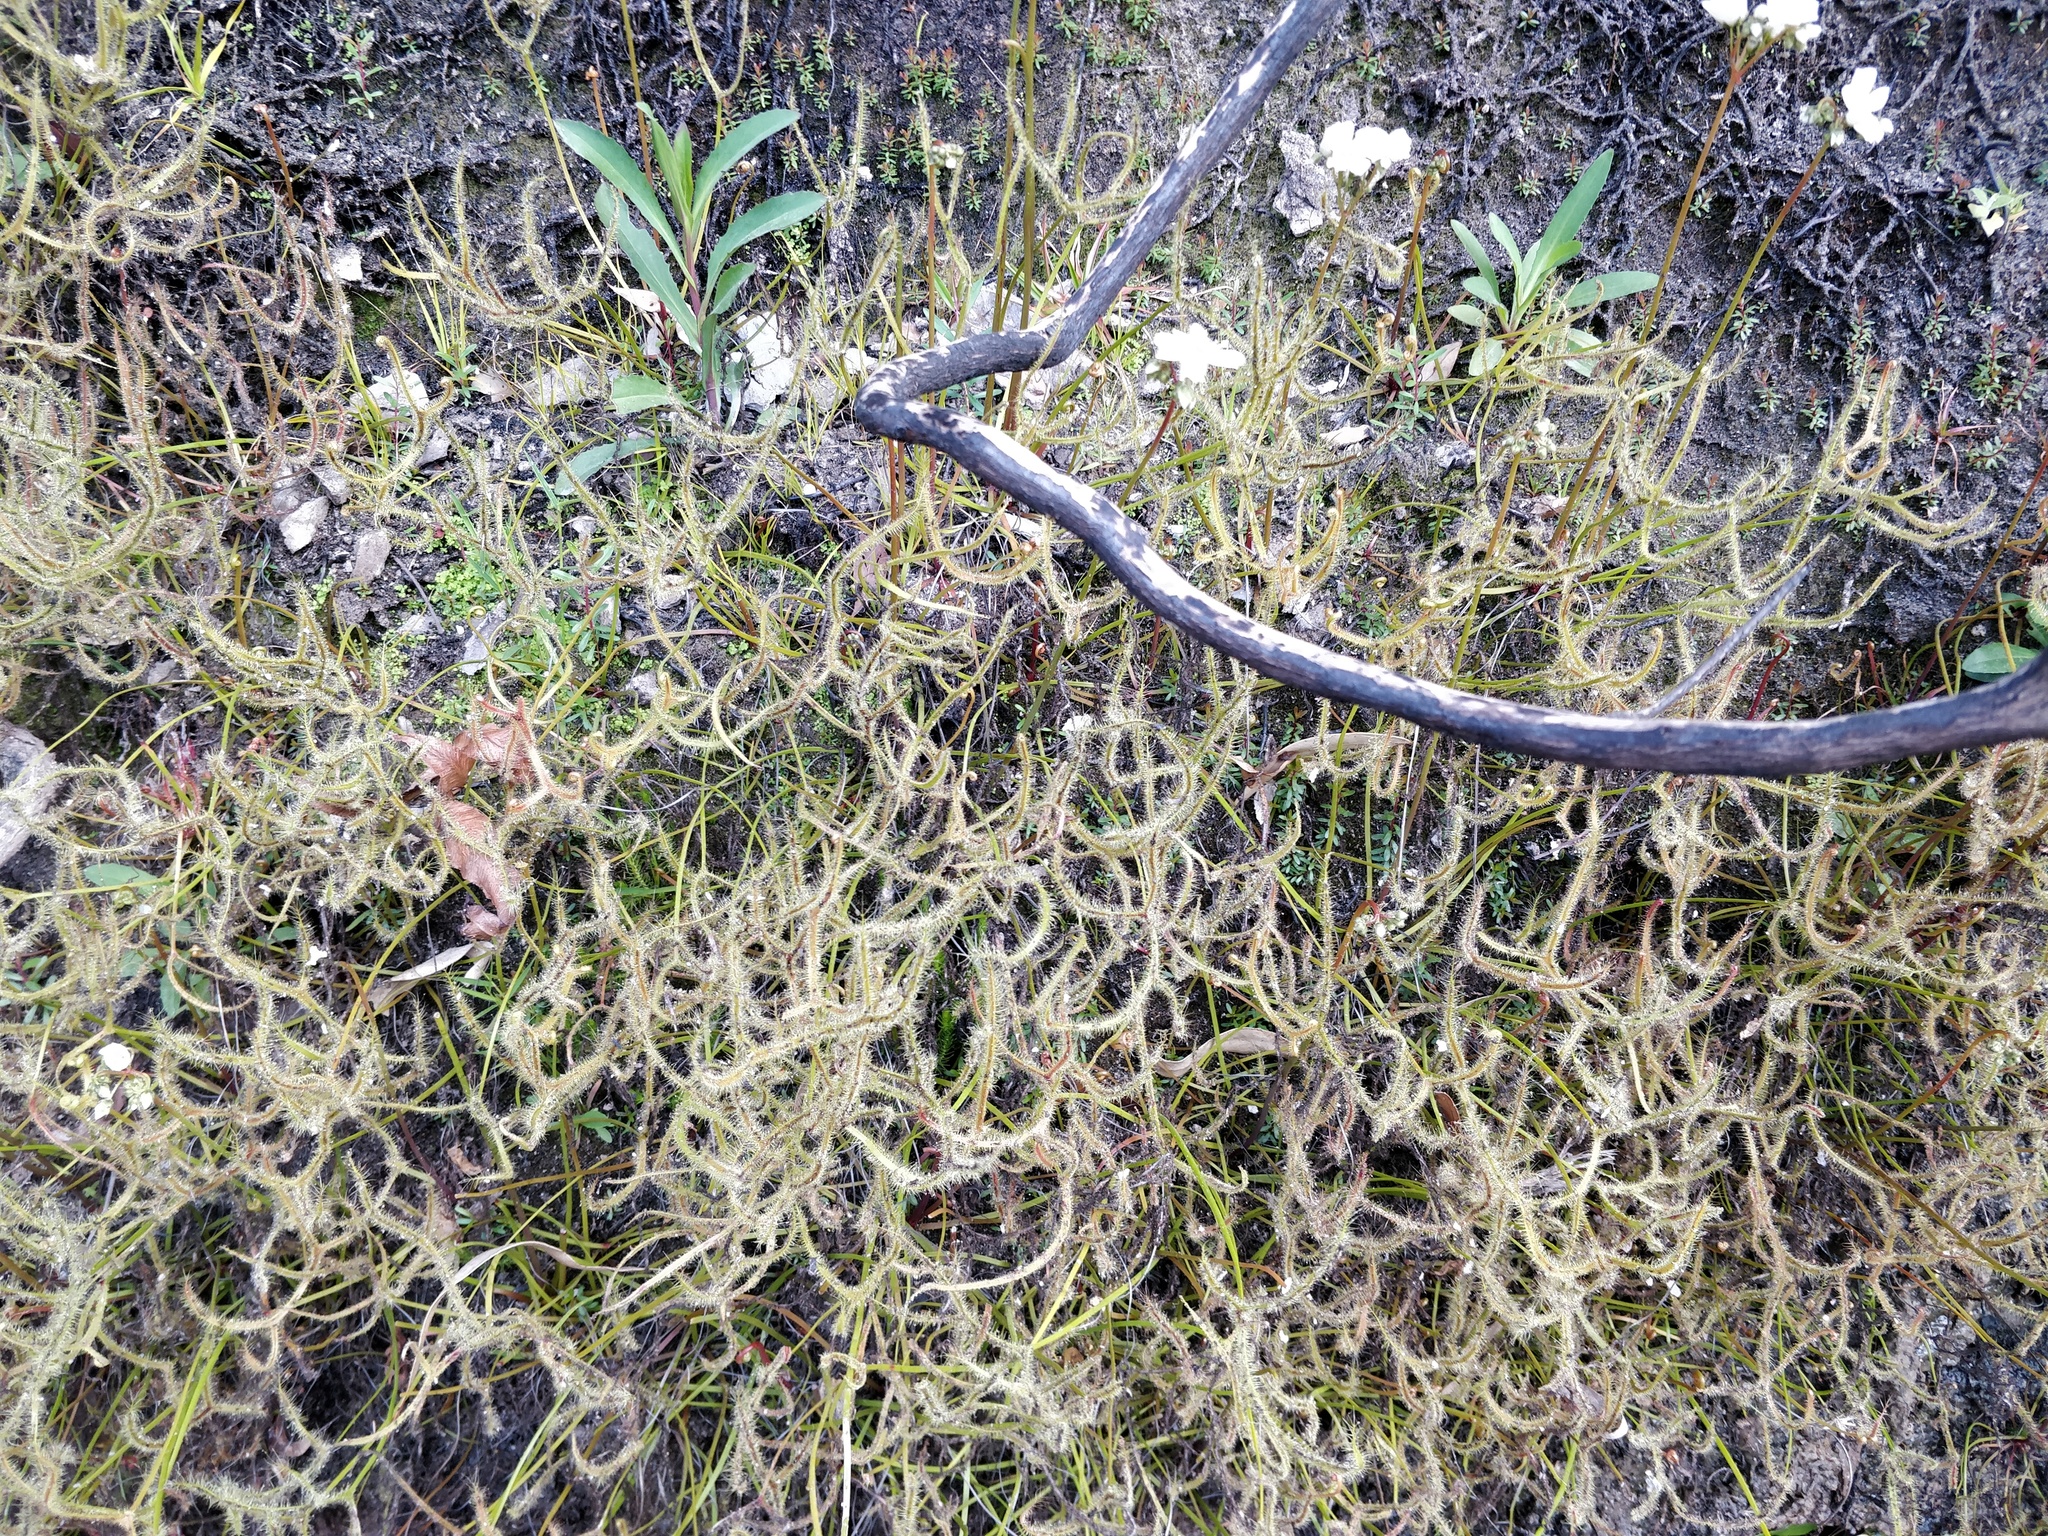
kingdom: Plantae
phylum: Tracheophyta
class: Magnoliopsida
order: Caryophyllales
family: Droseraceae
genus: Drosera
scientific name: Drosera binata
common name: Forked sundew
